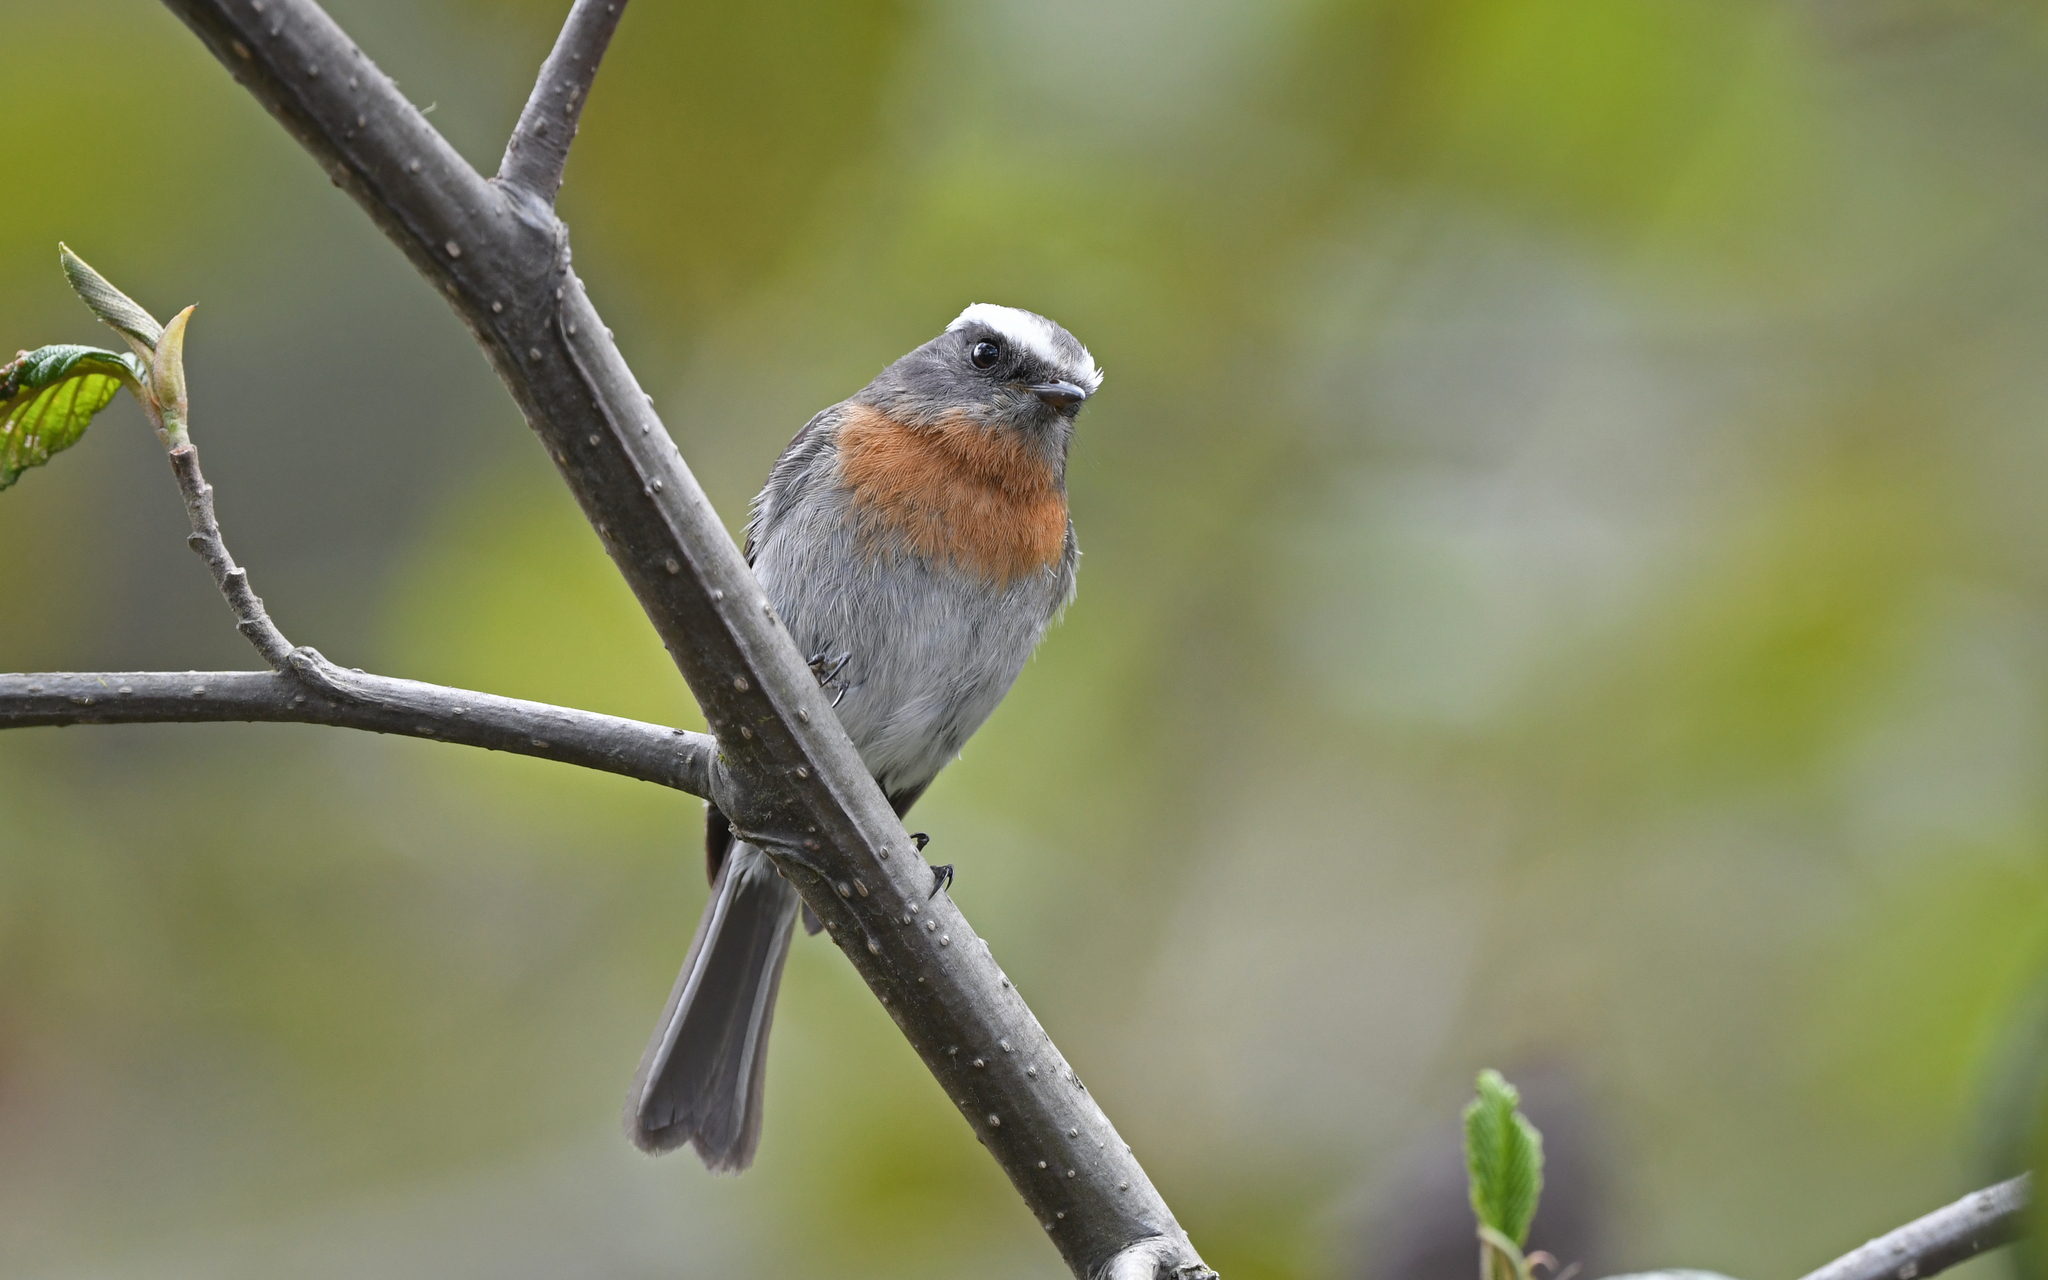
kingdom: Animalia
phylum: Chordata
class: Aves
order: Passeriformes
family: Tyrannidae
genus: Ochthoeca
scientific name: Ochthoeca rufipectoralis
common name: Rufous-breasted chat-tyrant
